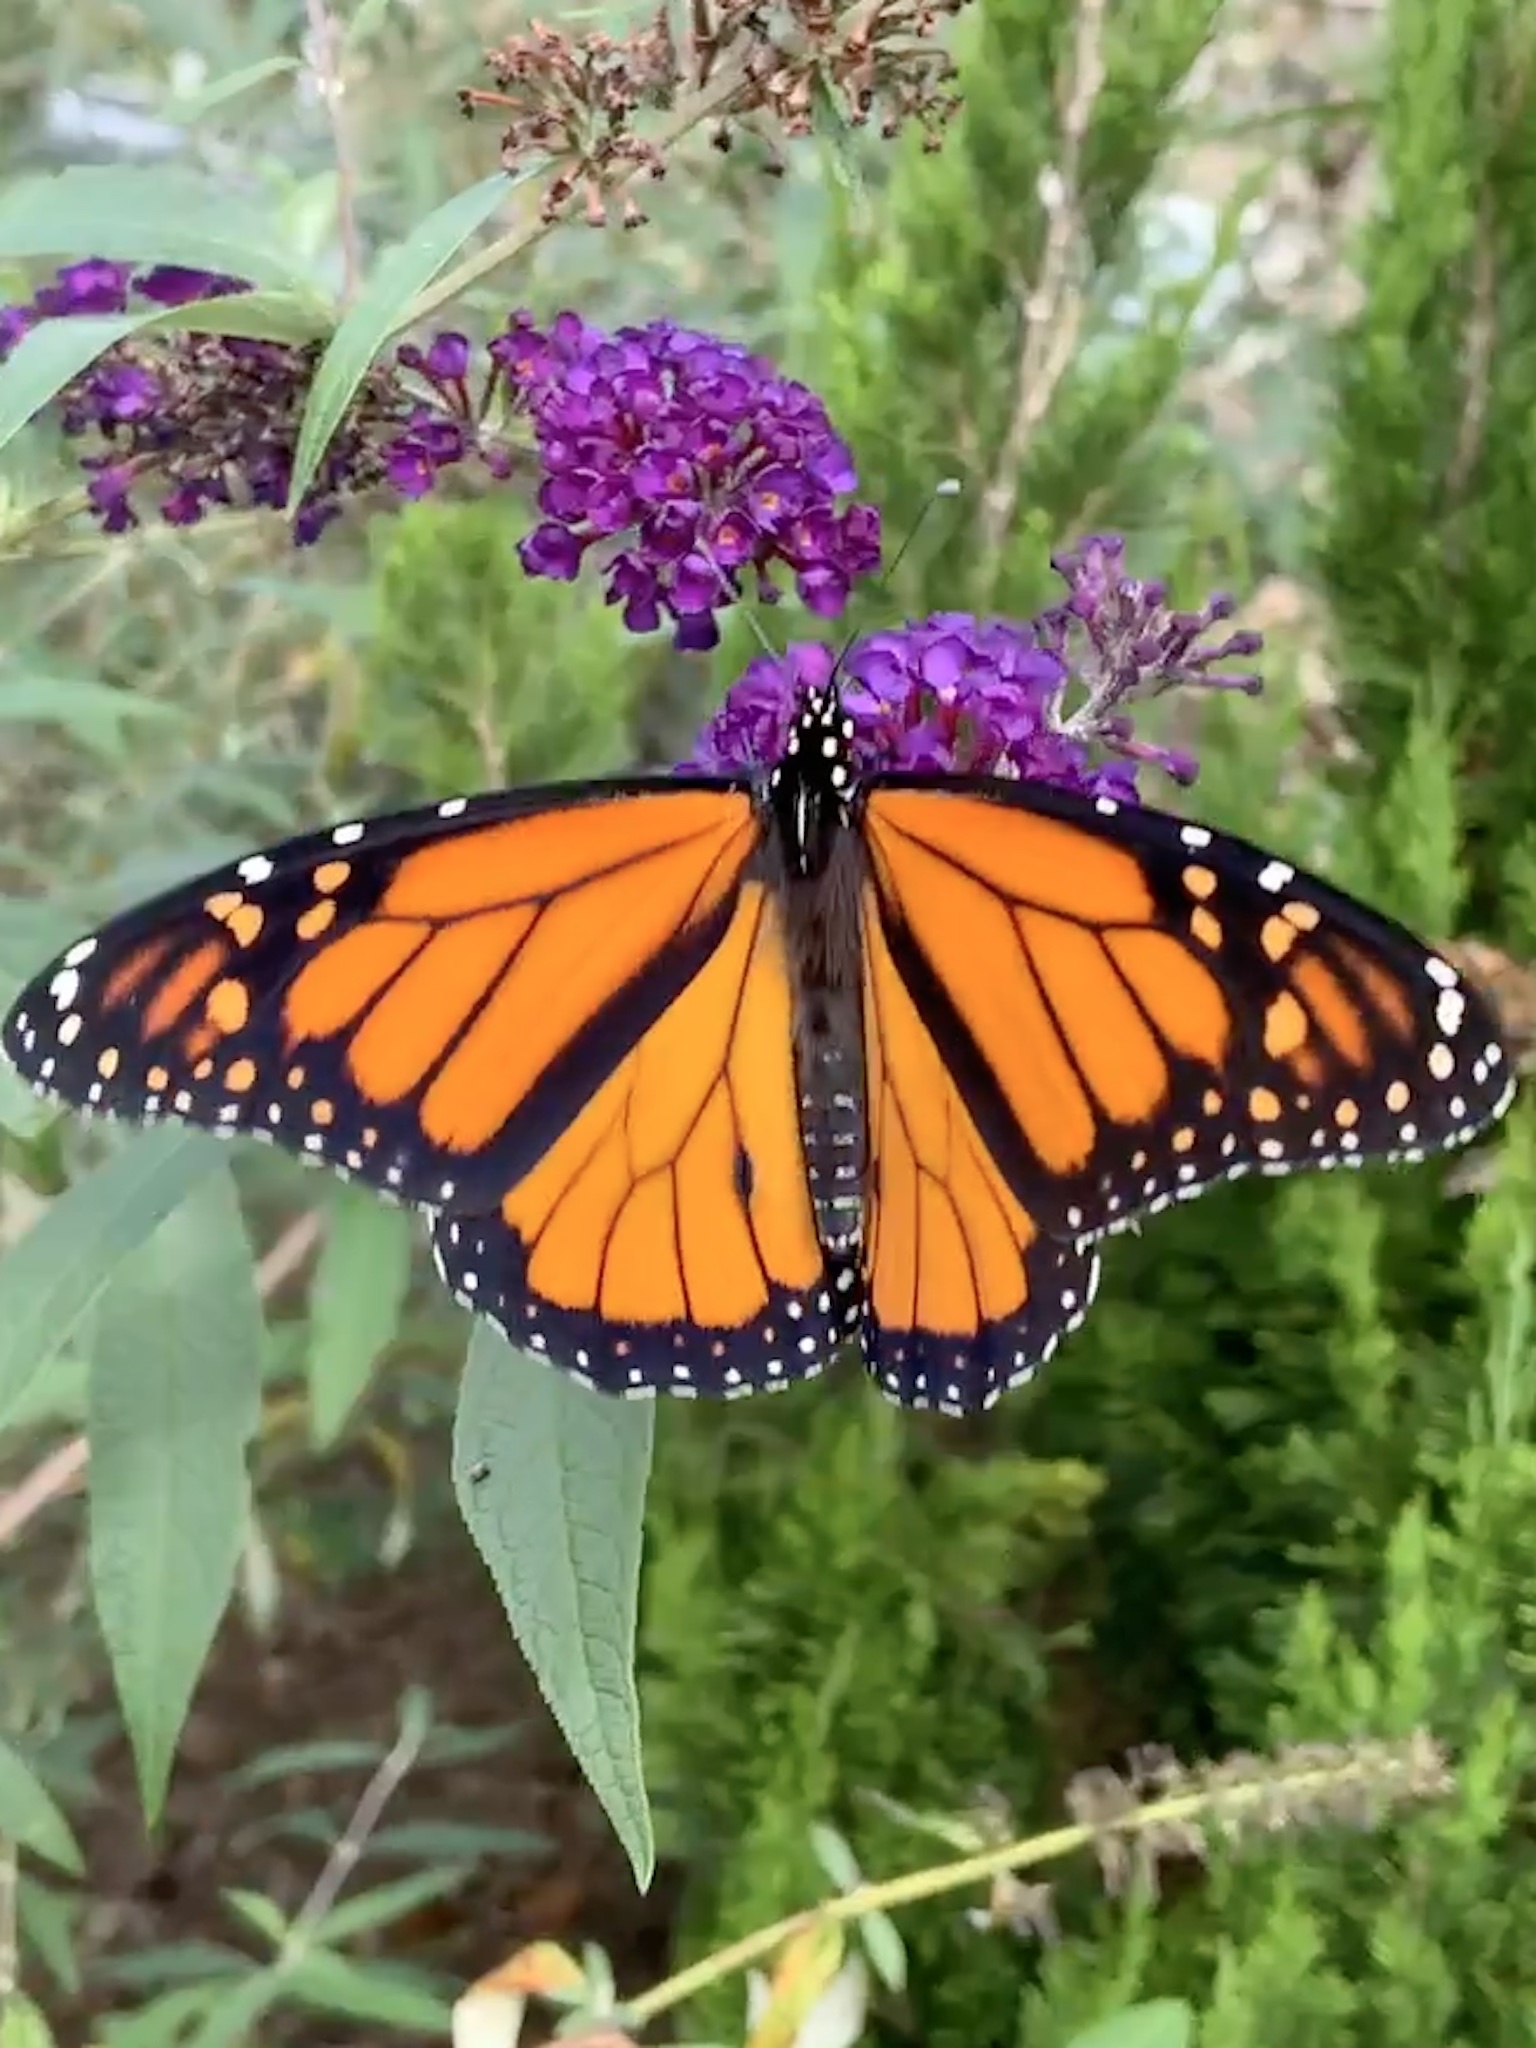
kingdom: Animalia
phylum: Arthropoda
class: Insecta
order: Lepidoptera
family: Nymphalidae
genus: Danaus
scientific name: Danaus plexippus
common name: Monarch
